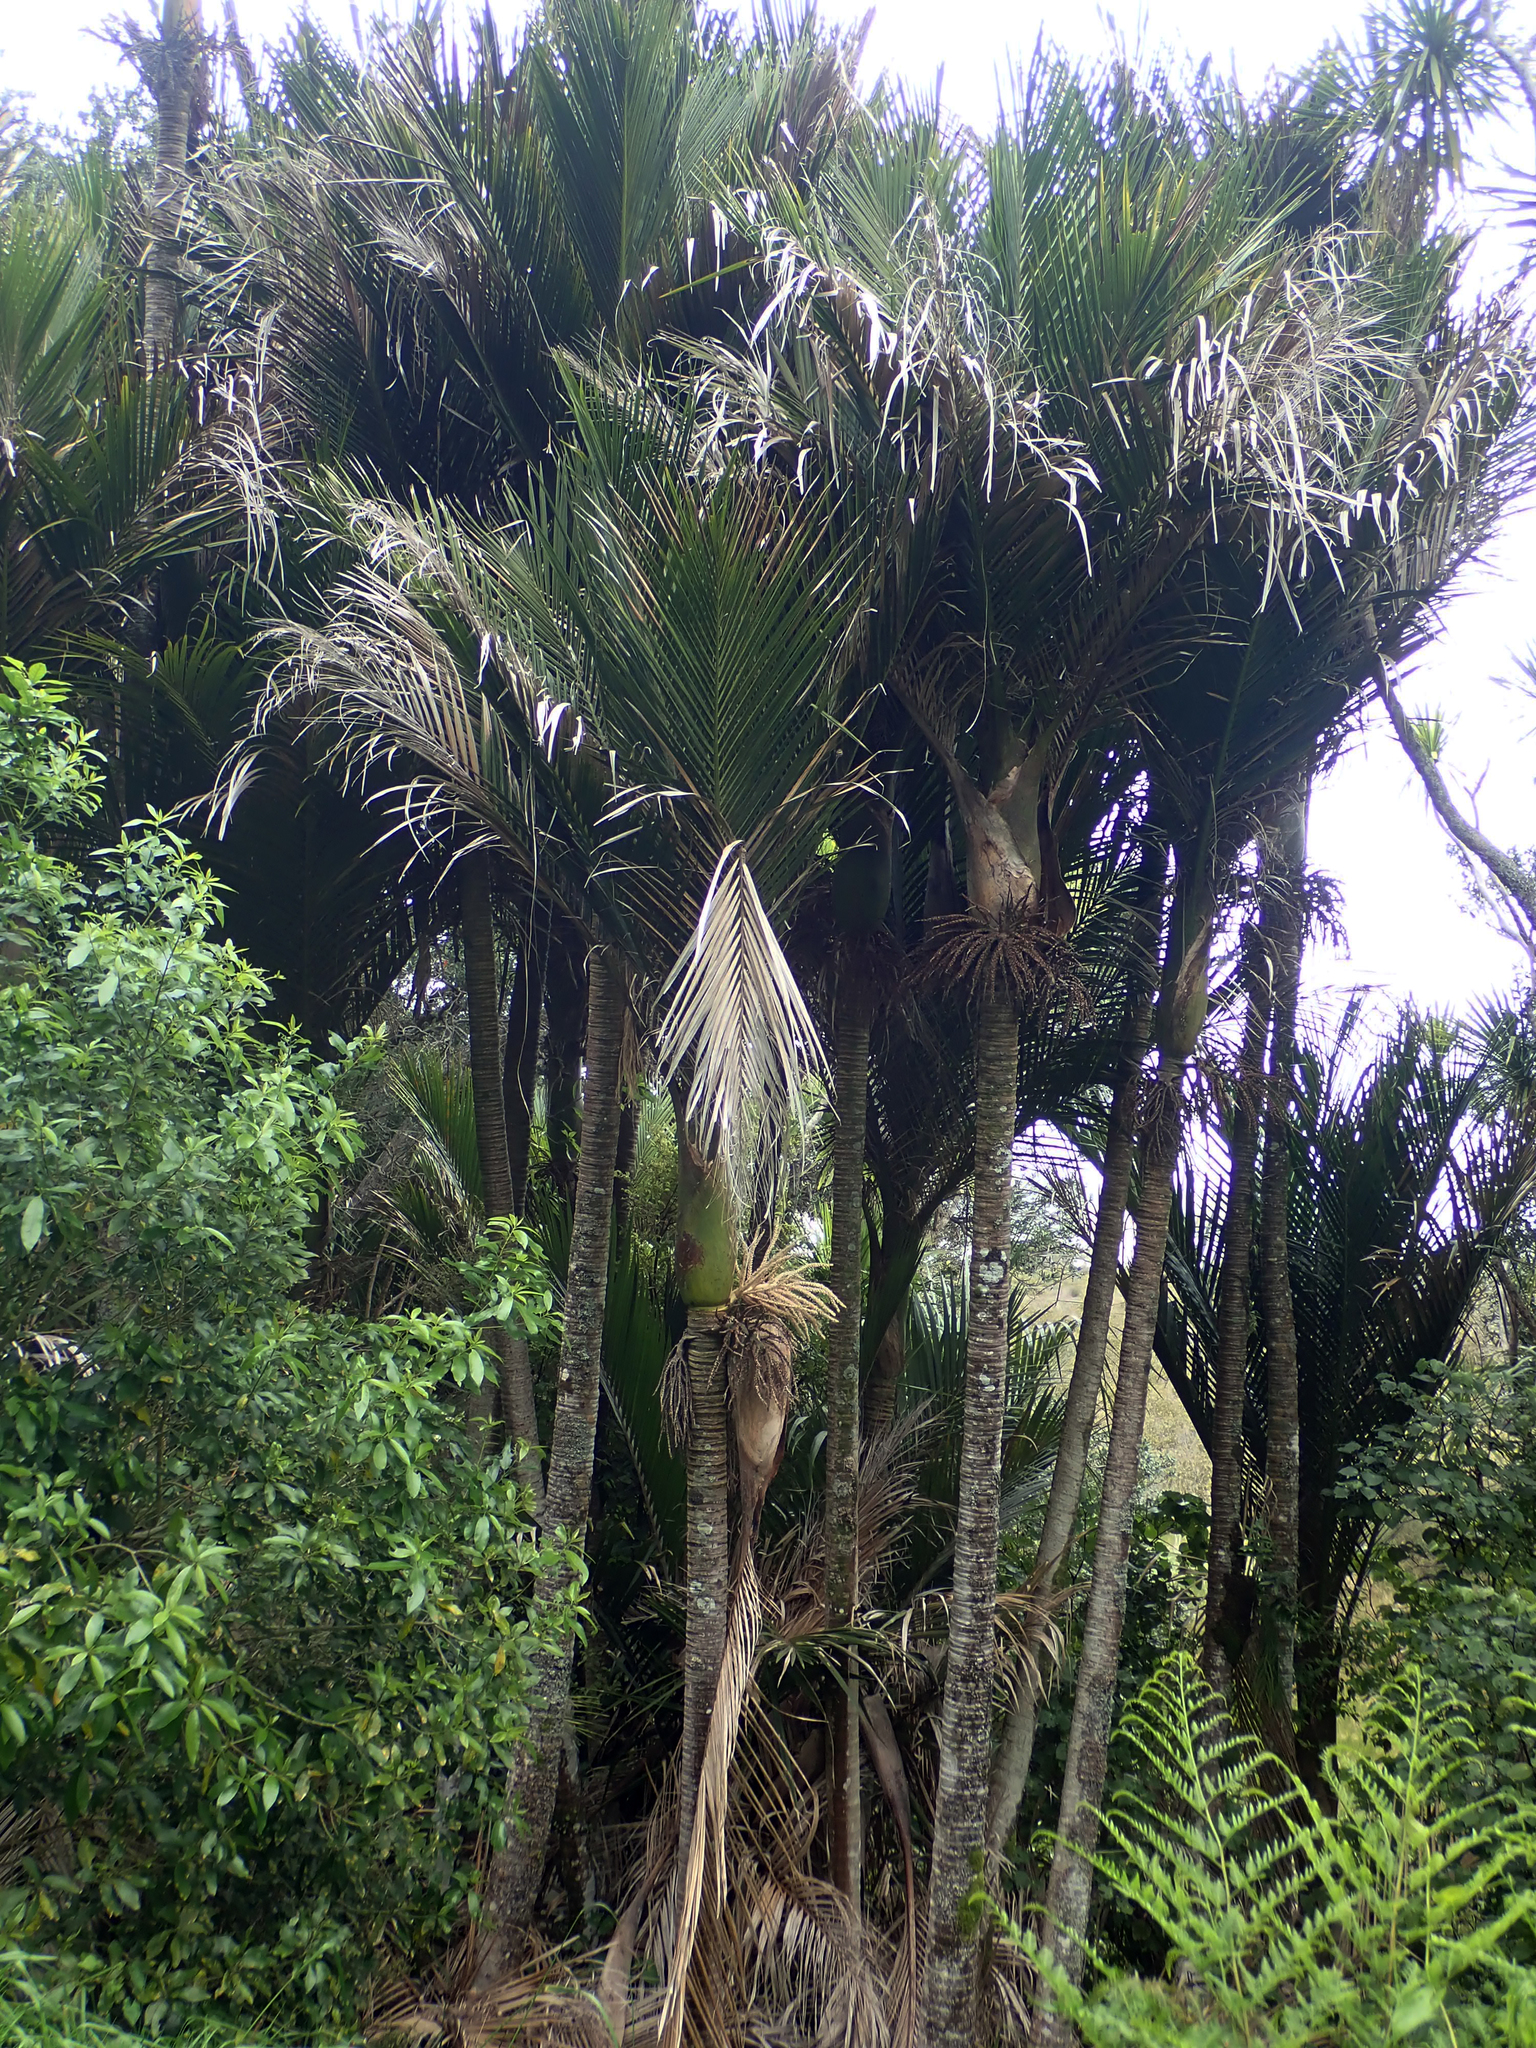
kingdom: Plantae
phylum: Tracheophyta
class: Liliopsida
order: Arecales
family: Arecaceae
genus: Rhopalostylis
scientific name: Rhopalostylis sapida
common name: Feather-duster palm
